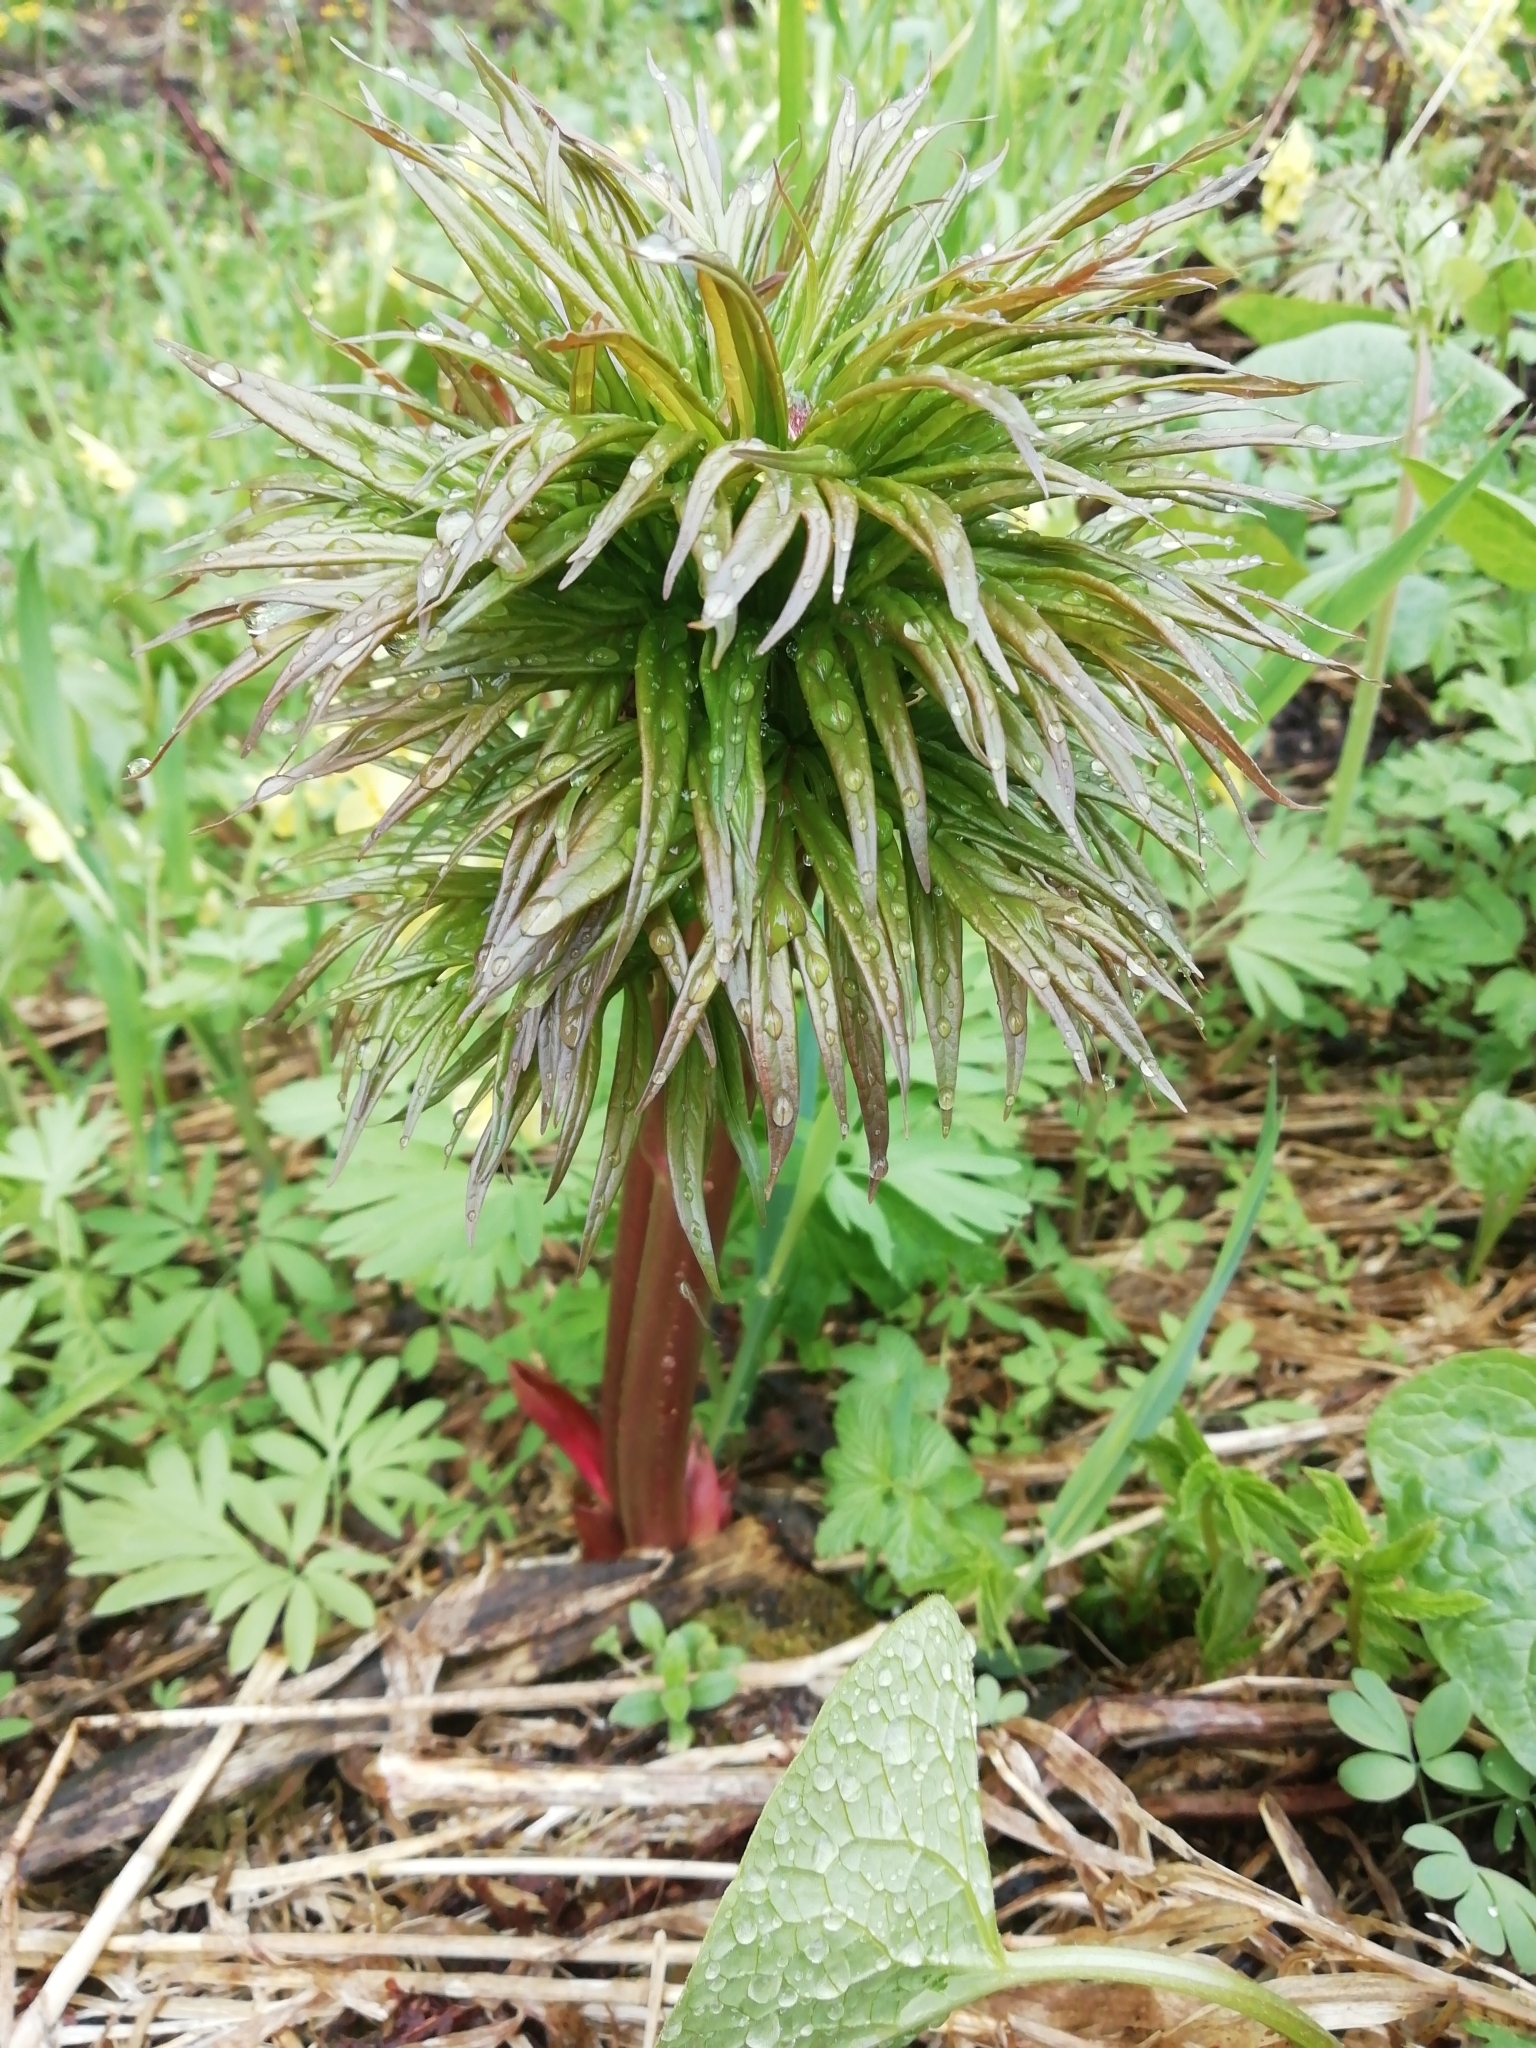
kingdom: Plantae
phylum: Tracheophyta
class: Magnoliopsida
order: Saxifragales
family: Paeoniaceae
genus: Paeonia
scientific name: Paeonia anomala
